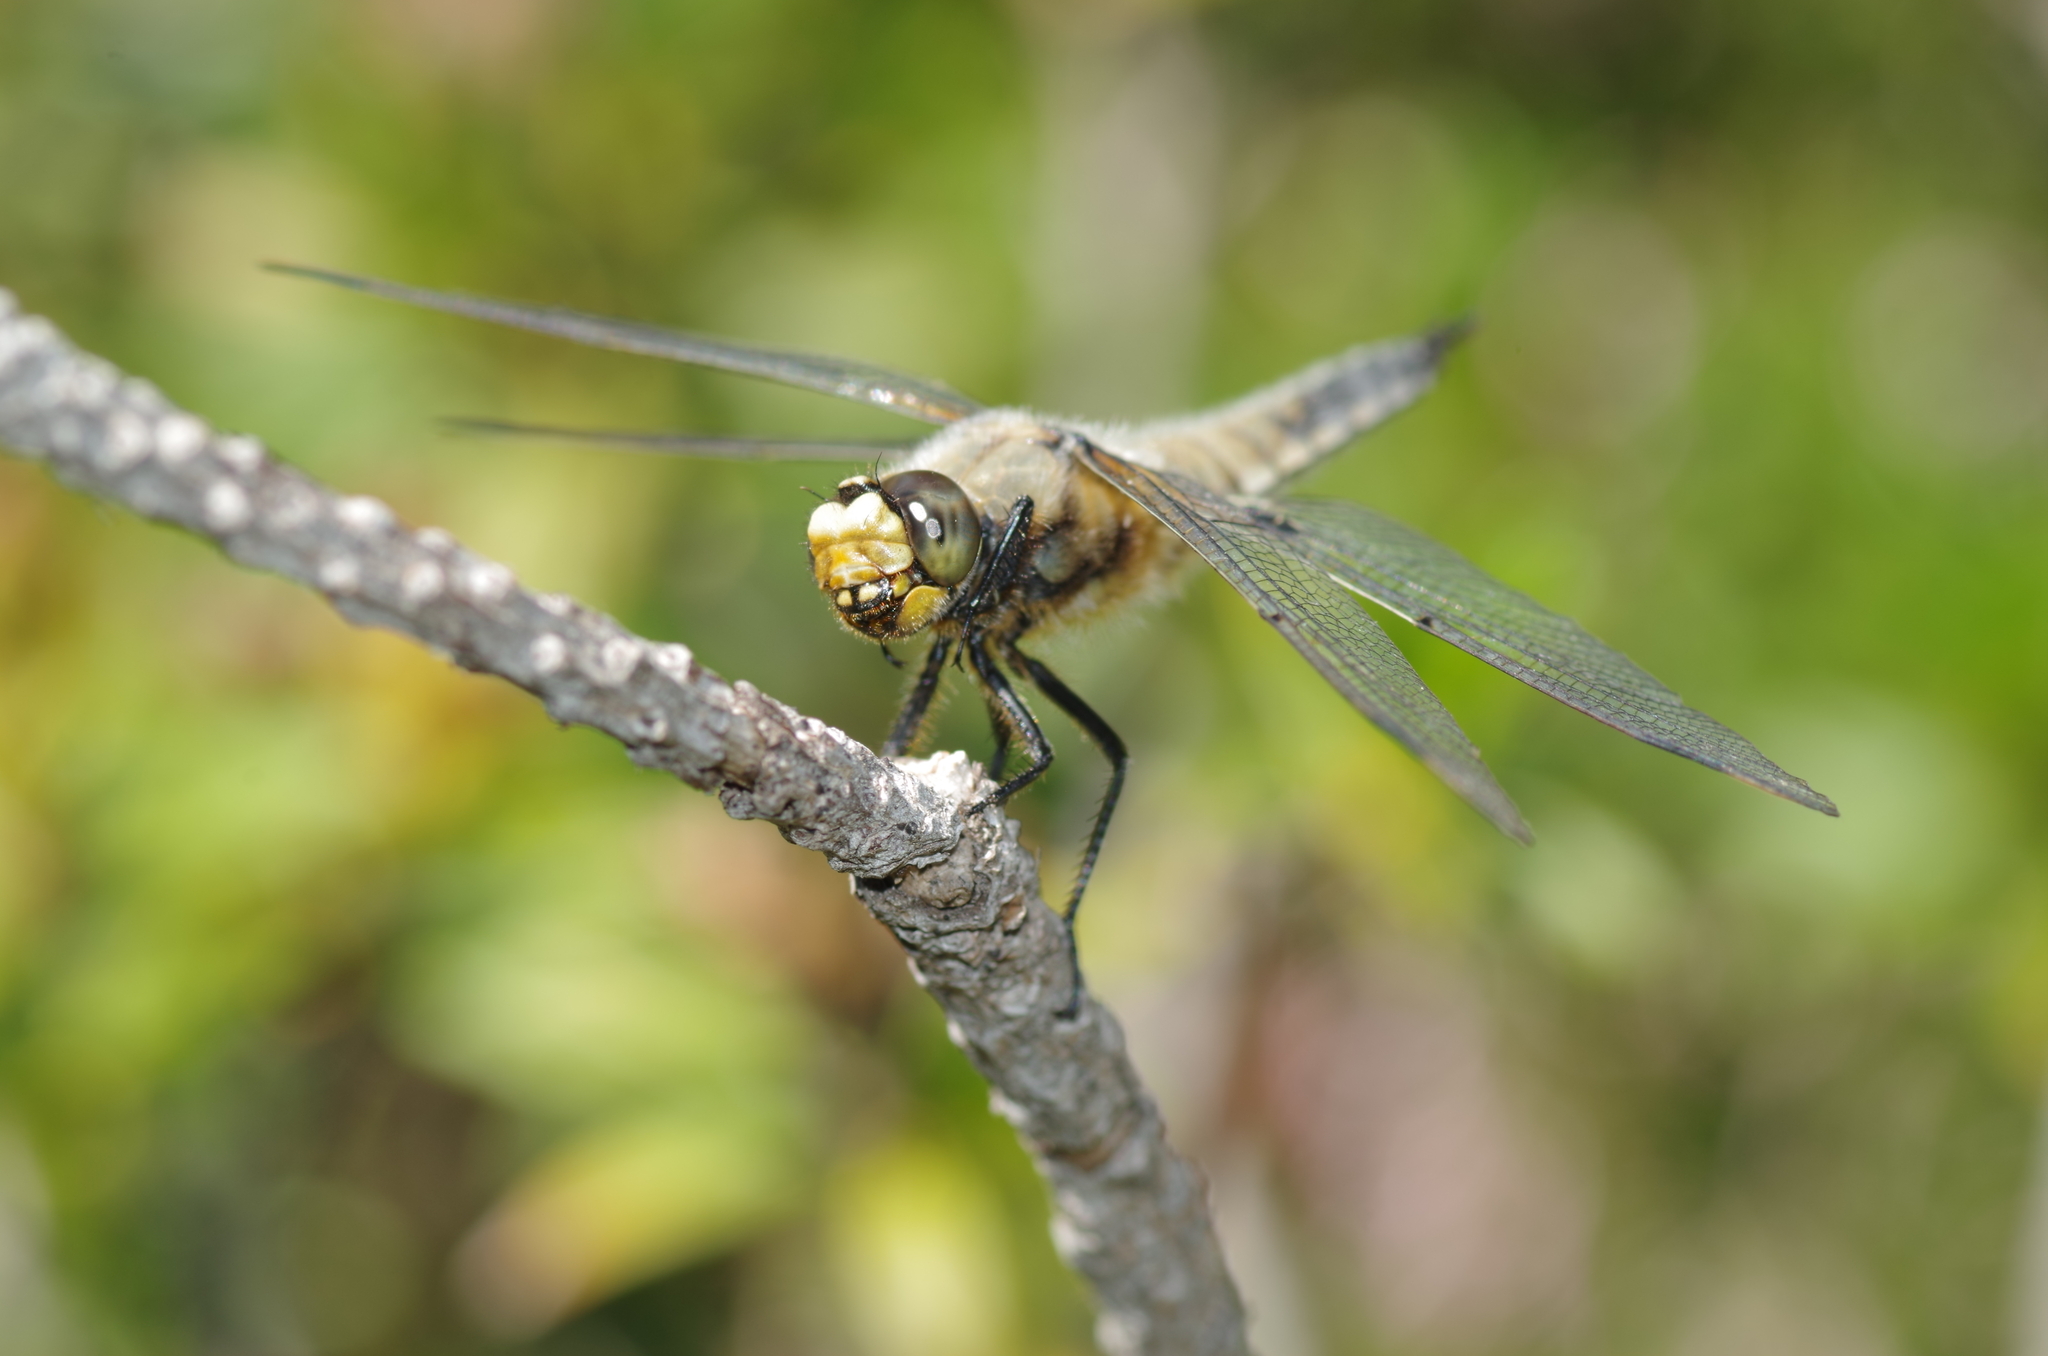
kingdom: Animalia
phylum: Arthropoda
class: Insecta
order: Odonata
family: Libellulidae
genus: Libellula
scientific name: Libellula quadrimaculata
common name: Four-spotted chaser
